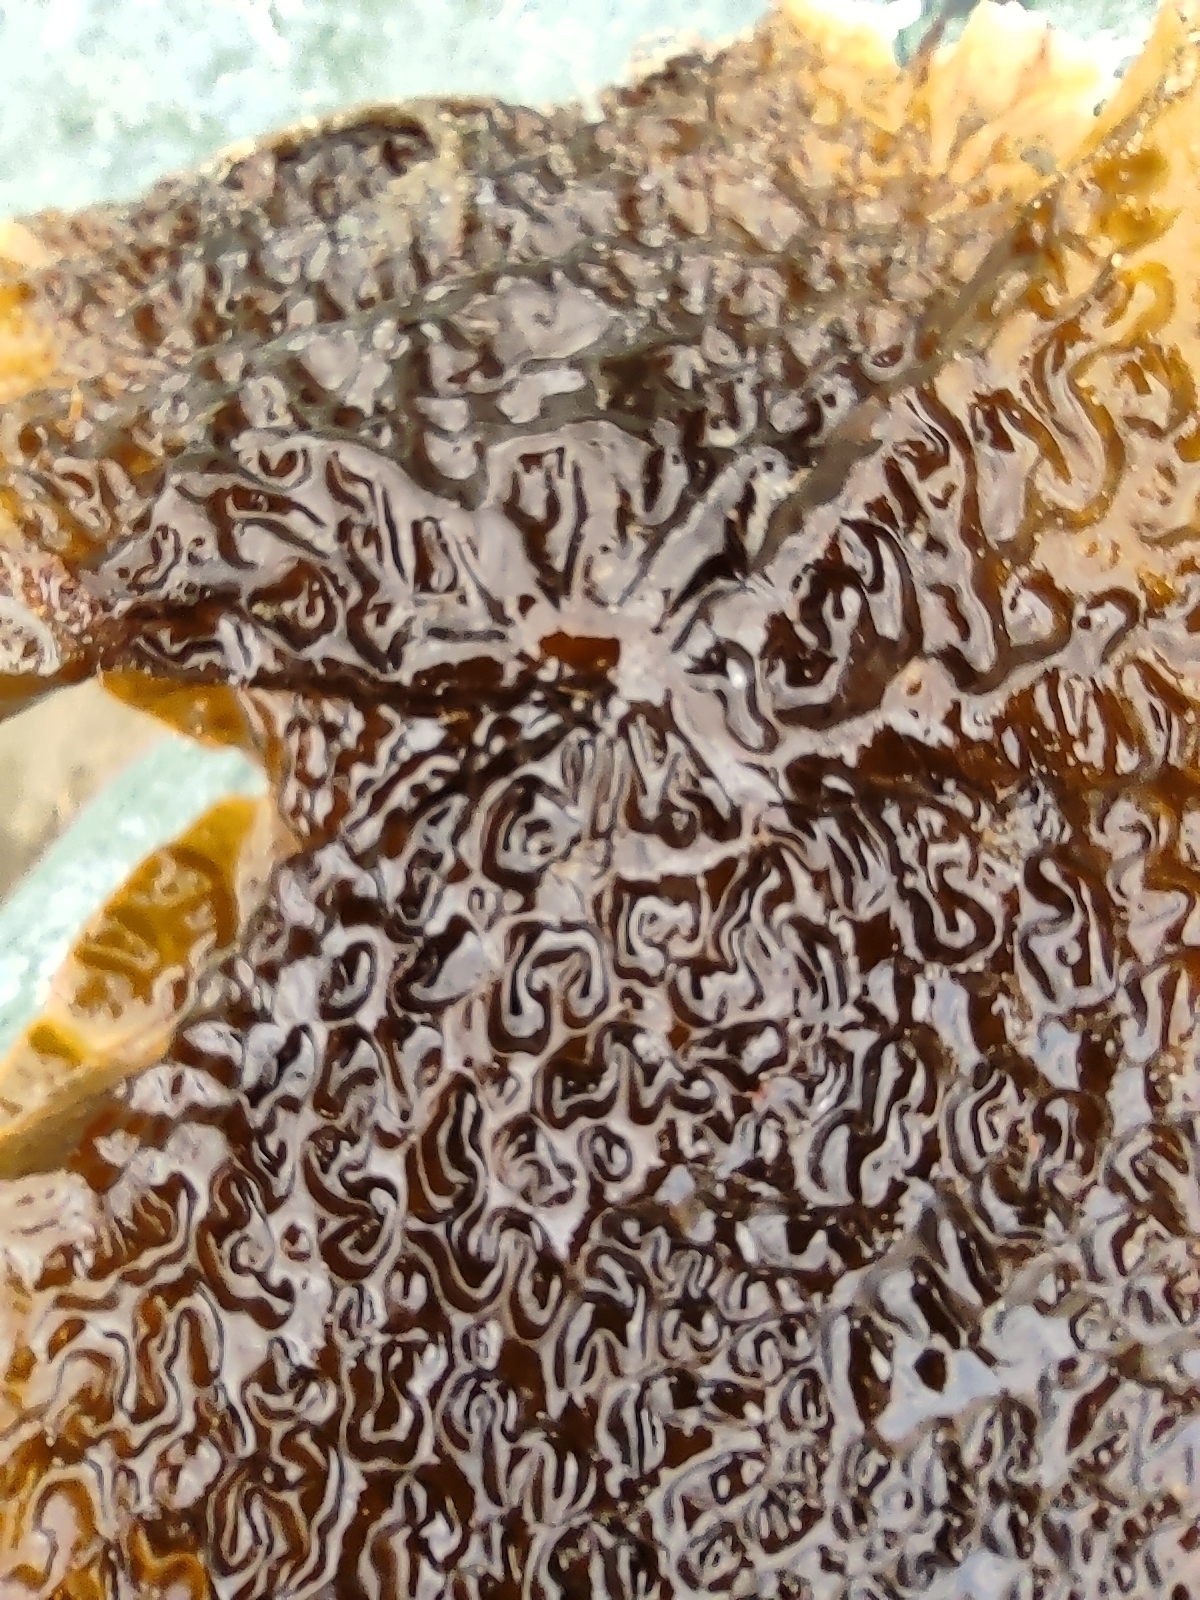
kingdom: Chromista
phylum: Ochrophyta
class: Phaeophyceae
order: Laminariales
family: Laminariaceae
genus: Saccharina
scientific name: Saccharina latissima
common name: Poor man's weather glass
